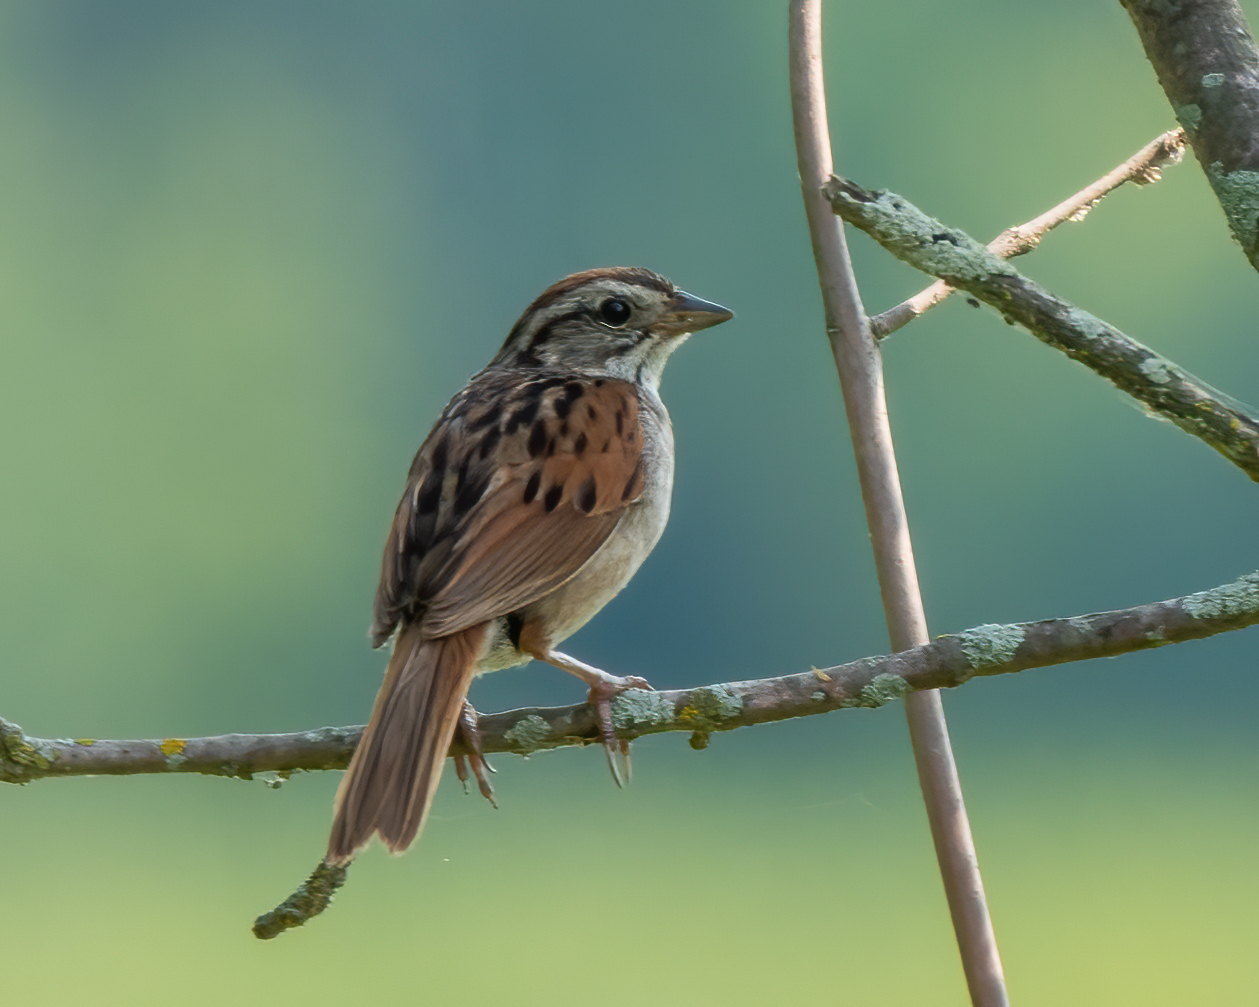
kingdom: Animalia
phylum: Chordata
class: Aves
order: Passeriformes
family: Passerellidae
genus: Melospiza
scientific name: Melospiza georgiana
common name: Swamp sparrow
